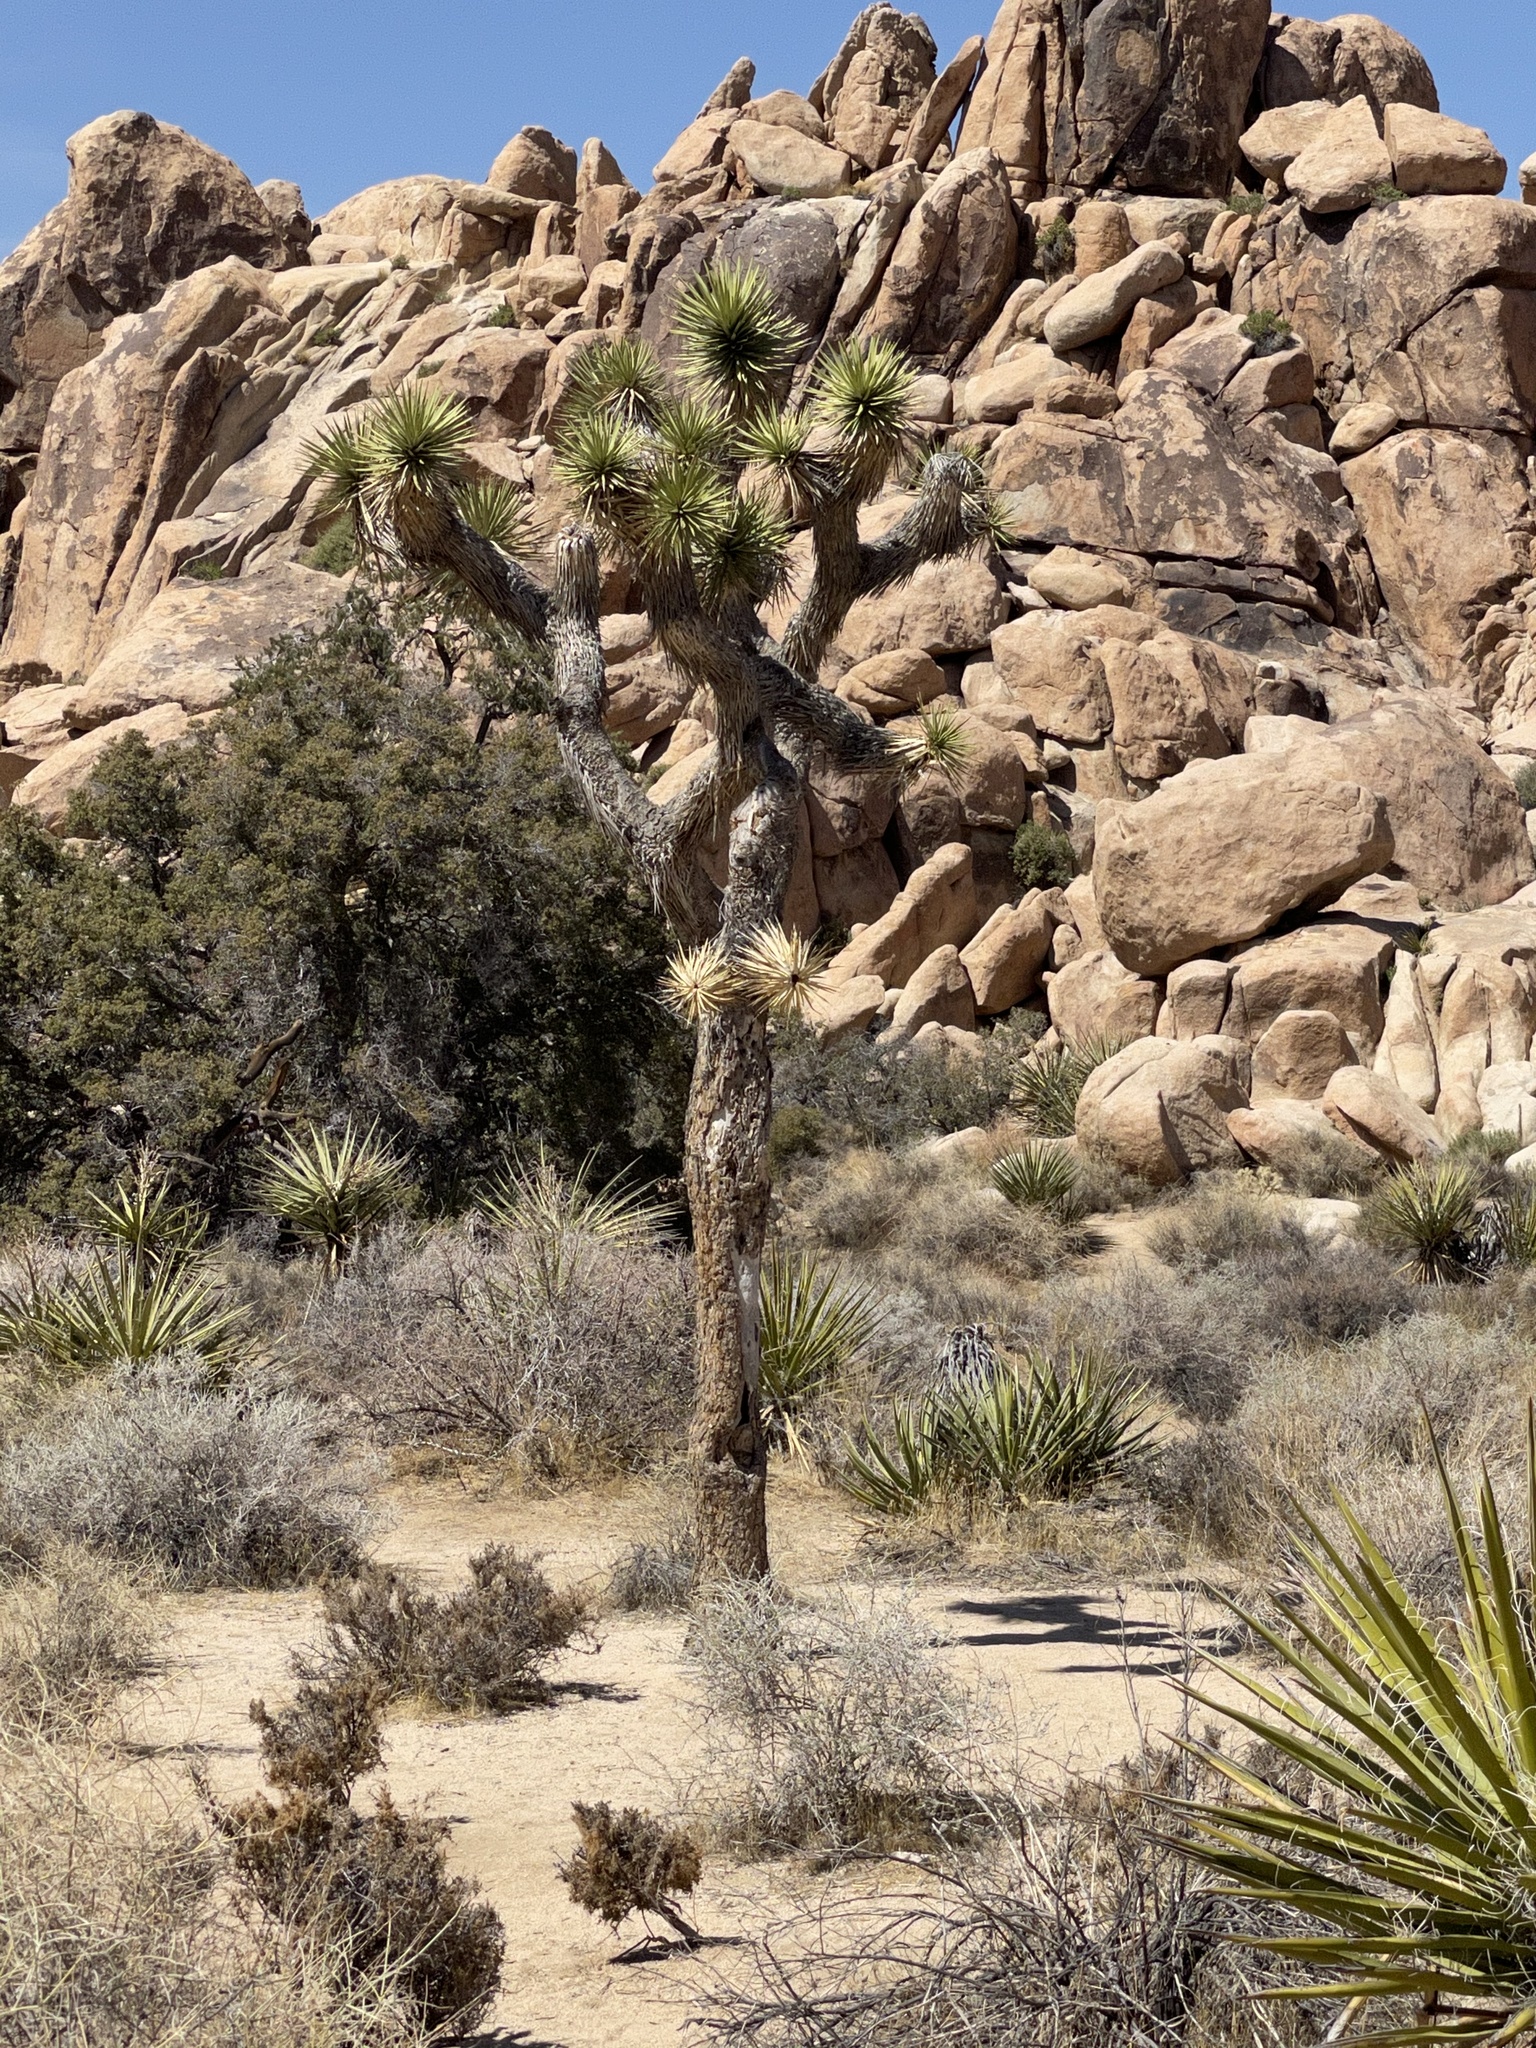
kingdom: Plantae
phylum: Tracheophyta
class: Liliopsida
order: Asparagales
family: Asparagaceae
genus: Yucca
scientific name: Yucca brevifolia
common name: Joshua tree
